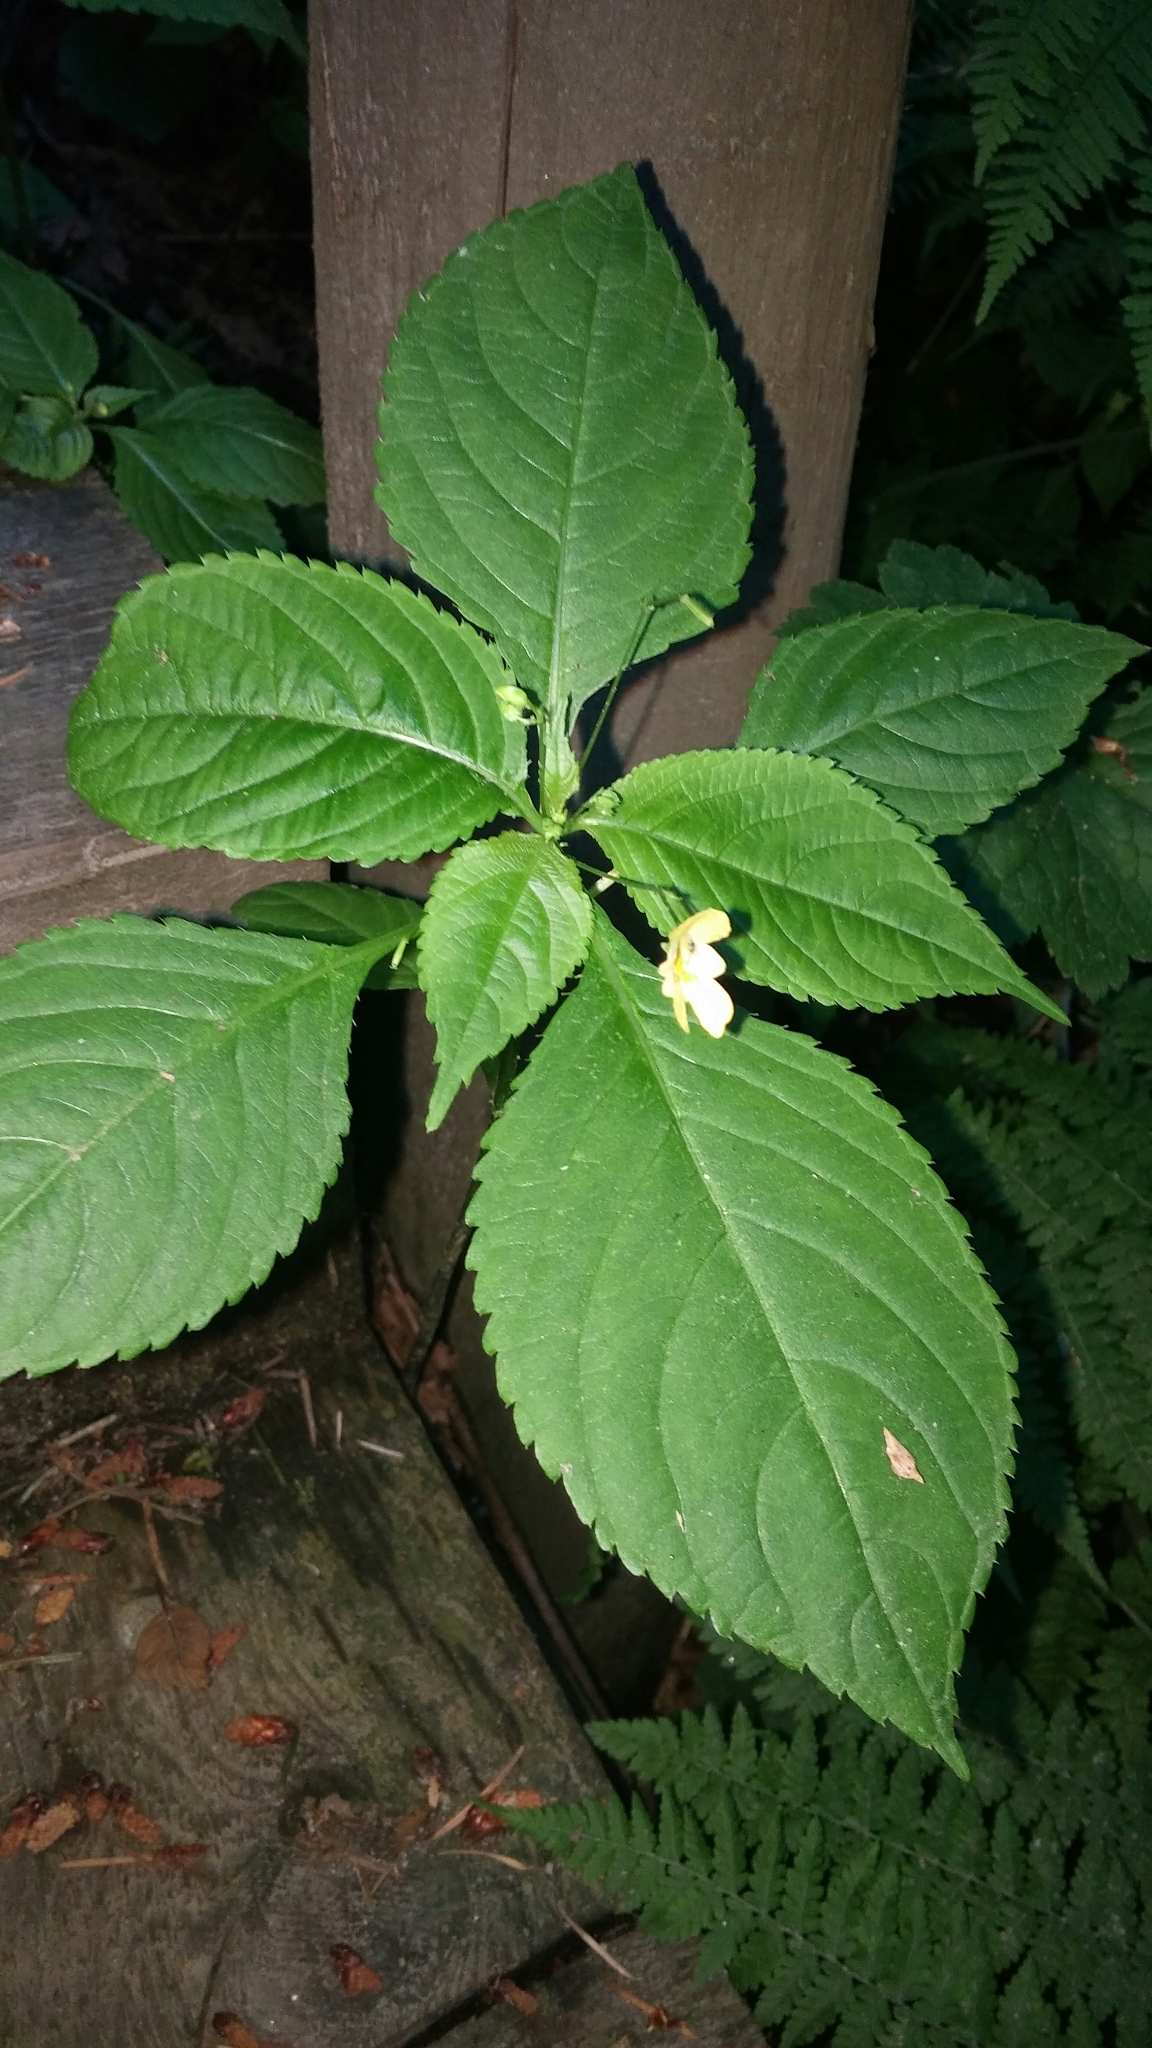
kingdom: Plantae
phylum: Tracheophyta
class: Magnoliopsida
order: Ericales
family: Balsaminaceae
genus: Impatiens
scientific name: Impatiens parviflora
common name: Small balsam
